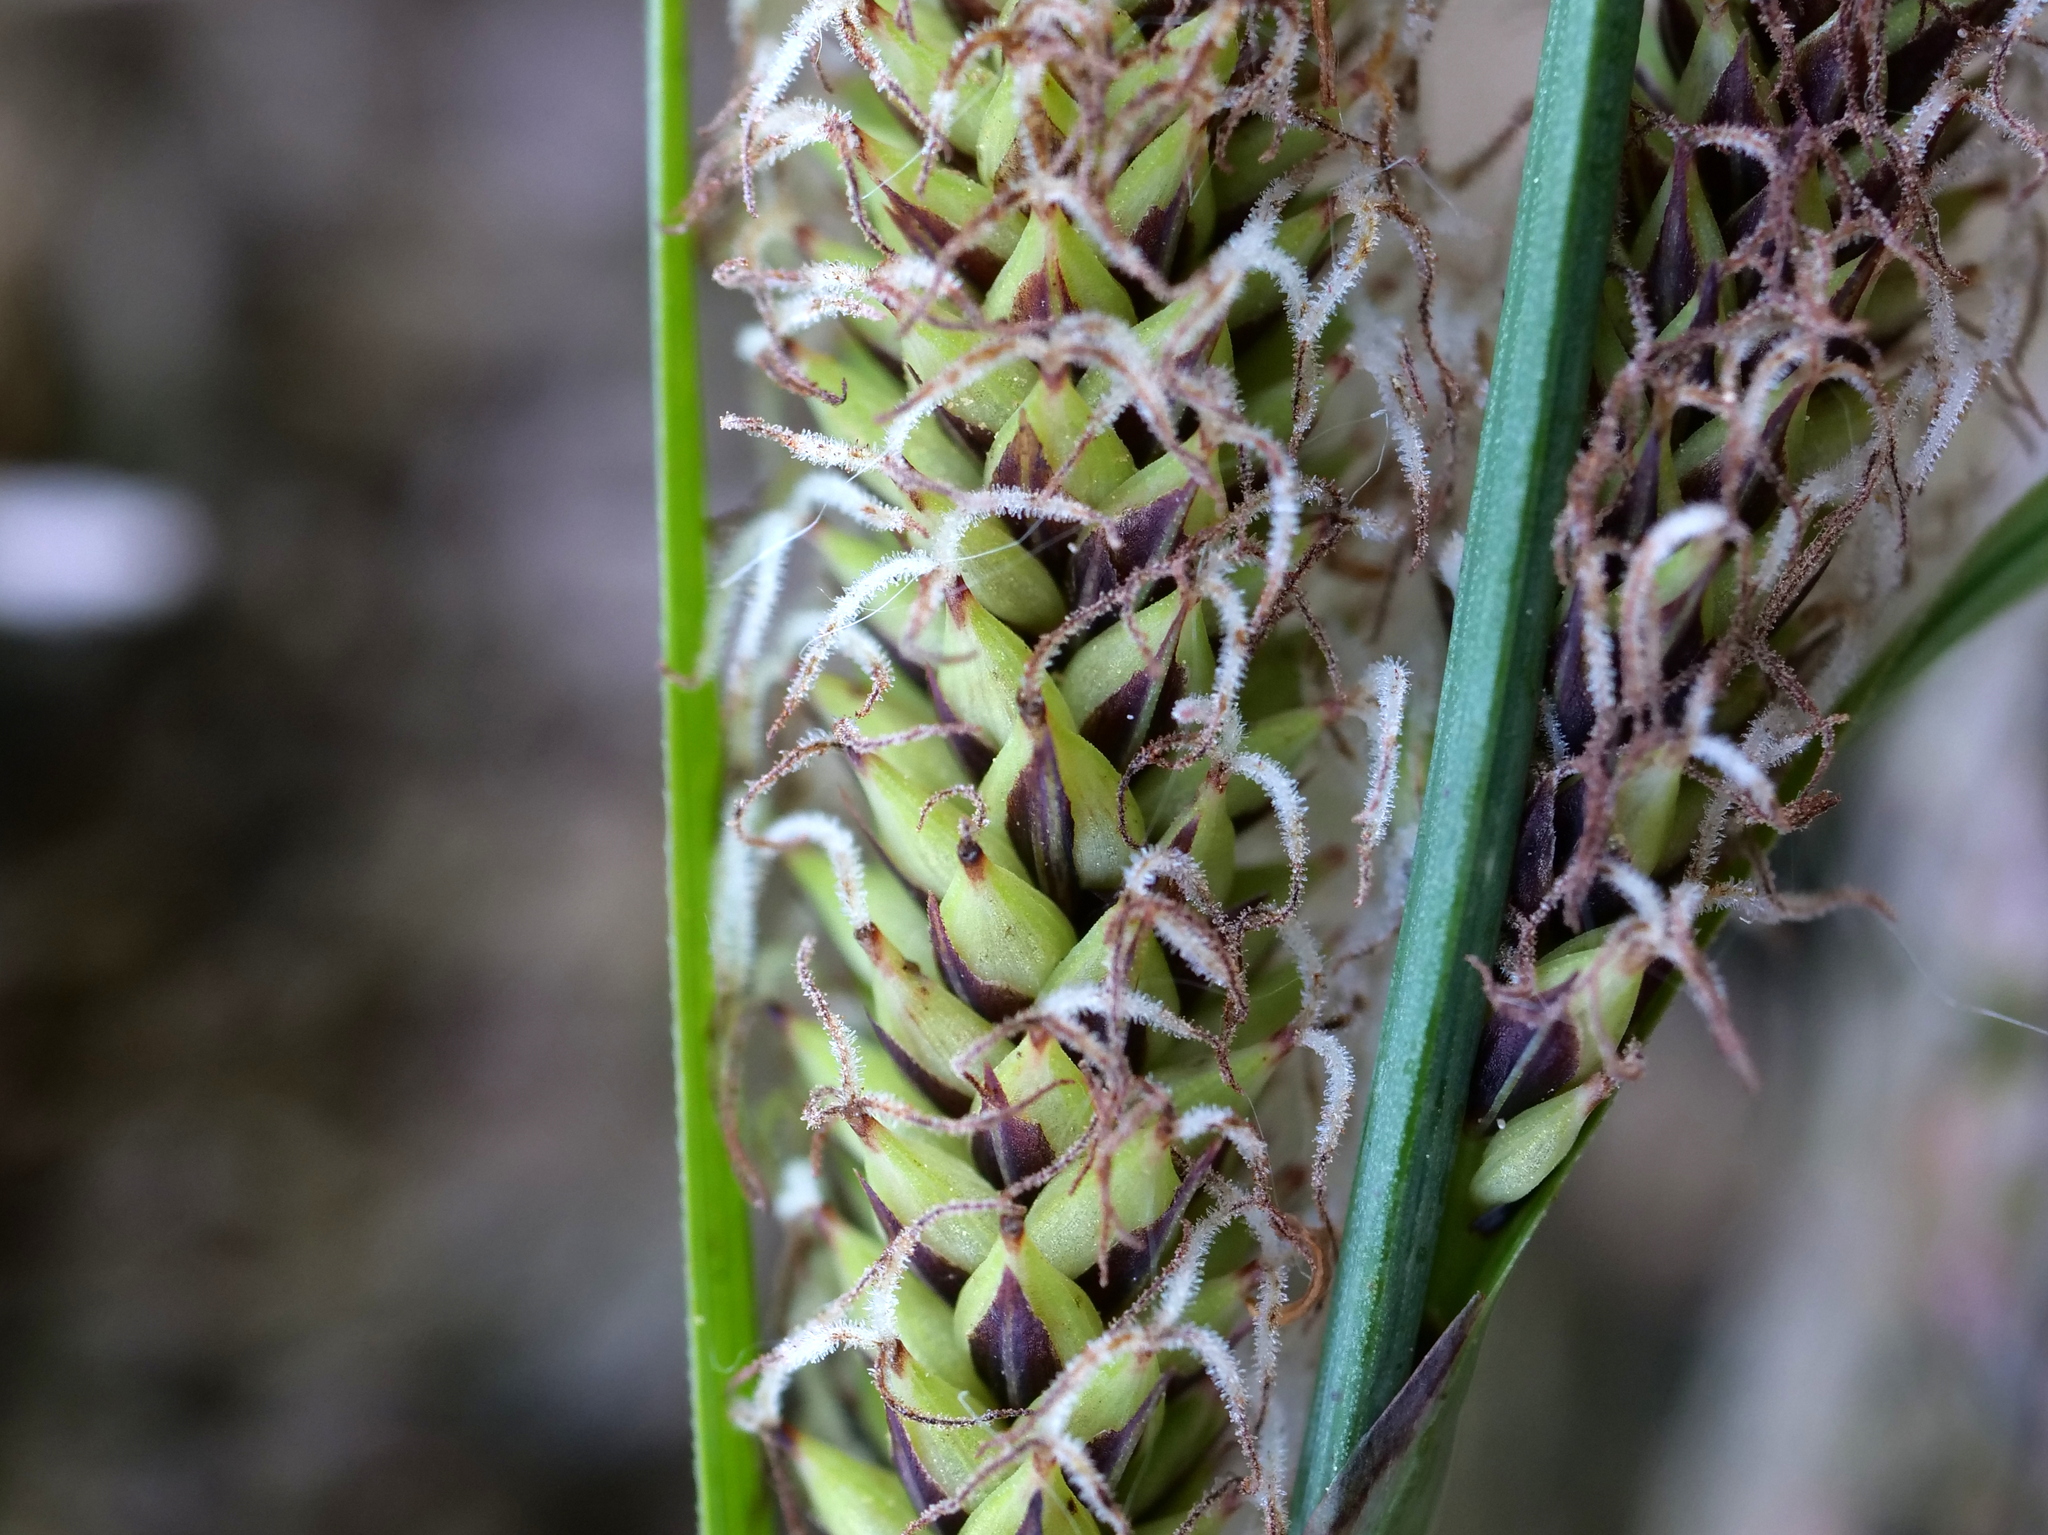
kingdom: Plantae
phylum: Tracheophyta
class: Liliopsida
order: Poales
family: Cyperaceae
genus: Carex
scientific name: Carex acutiformis
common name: Lesser pond-sedge
